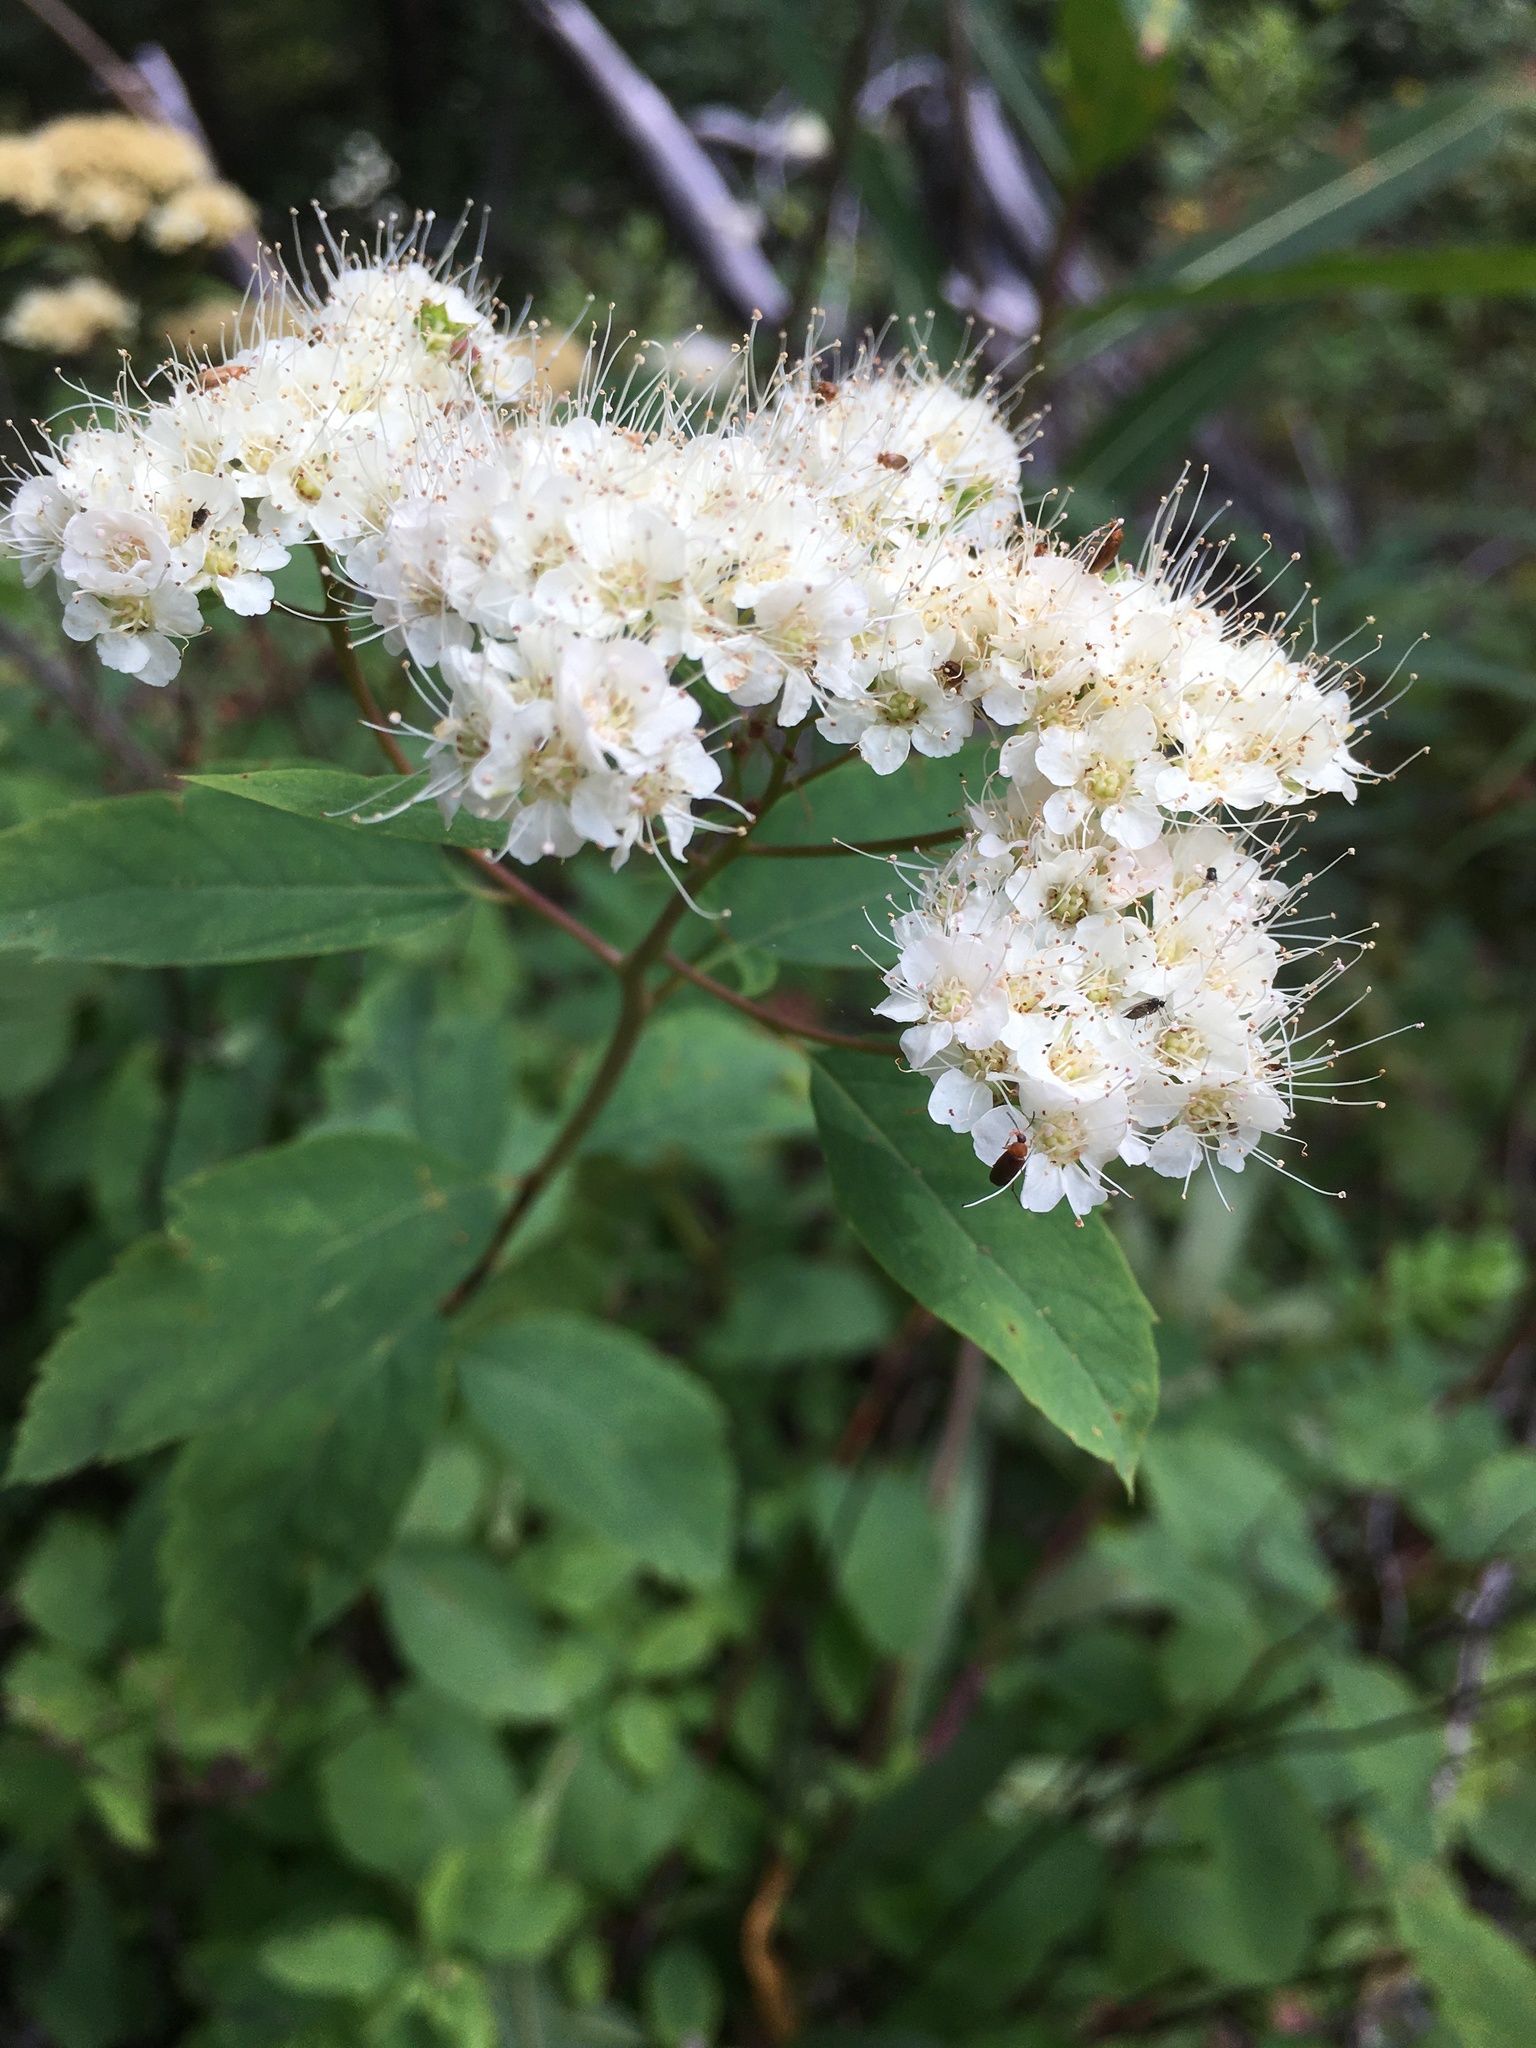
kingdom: Plantae
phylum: Tracheophyta
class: Magnoliopsida
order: Rosales
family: Rosaceae
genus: Spiraea
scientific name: Spiraea lucida
